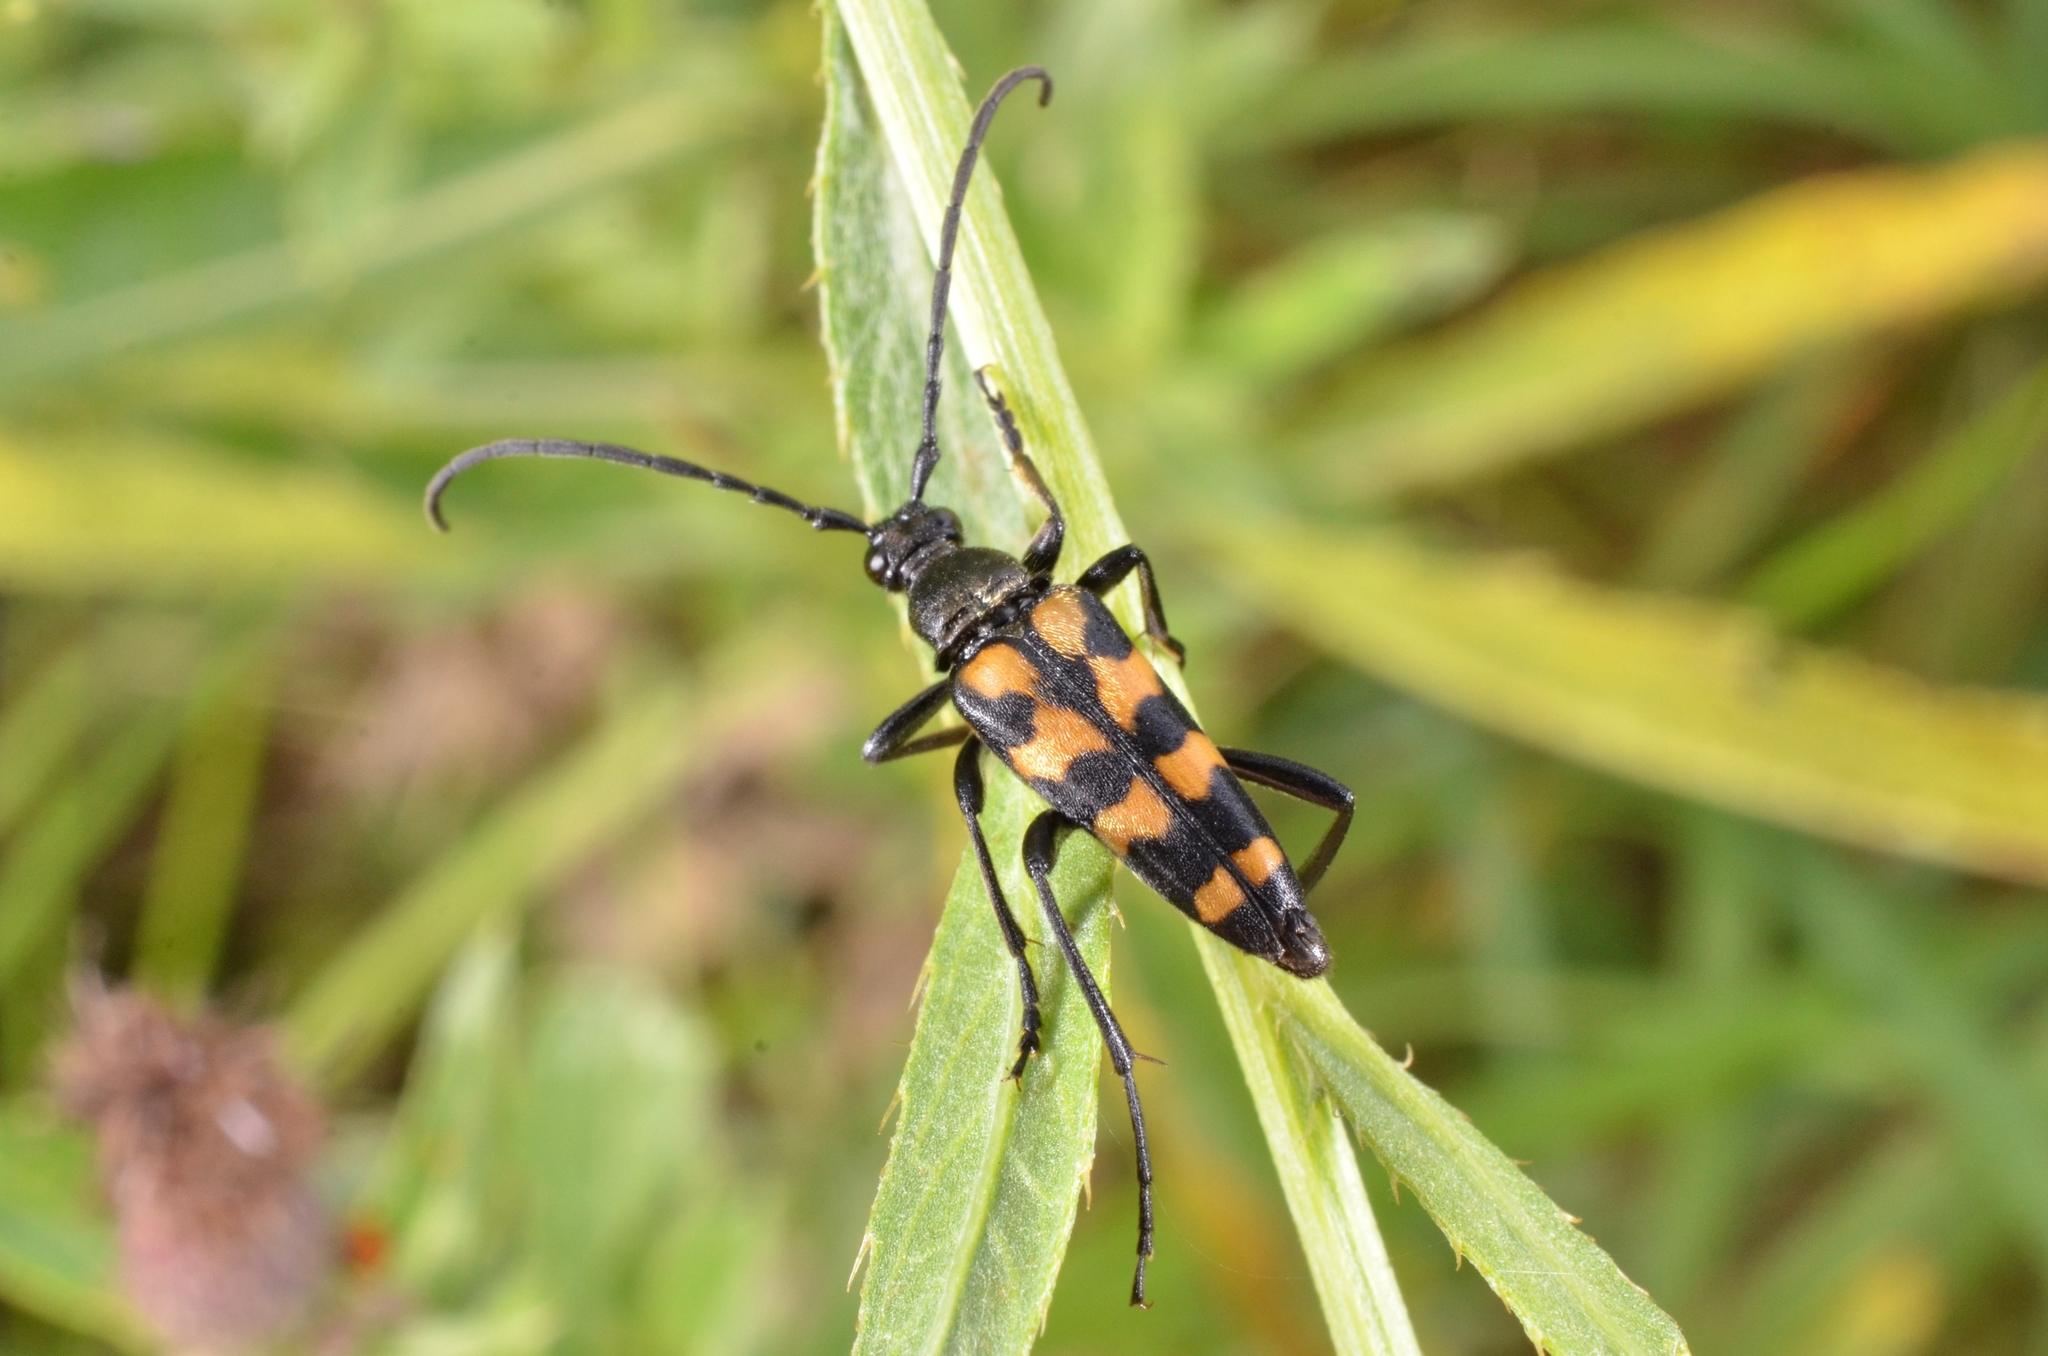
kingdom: Animalia
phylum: Arthropoda
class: Insecta
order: Coleoptera
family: Cerambycidae
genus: Leptura
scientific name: Leptura quadrifasciata
